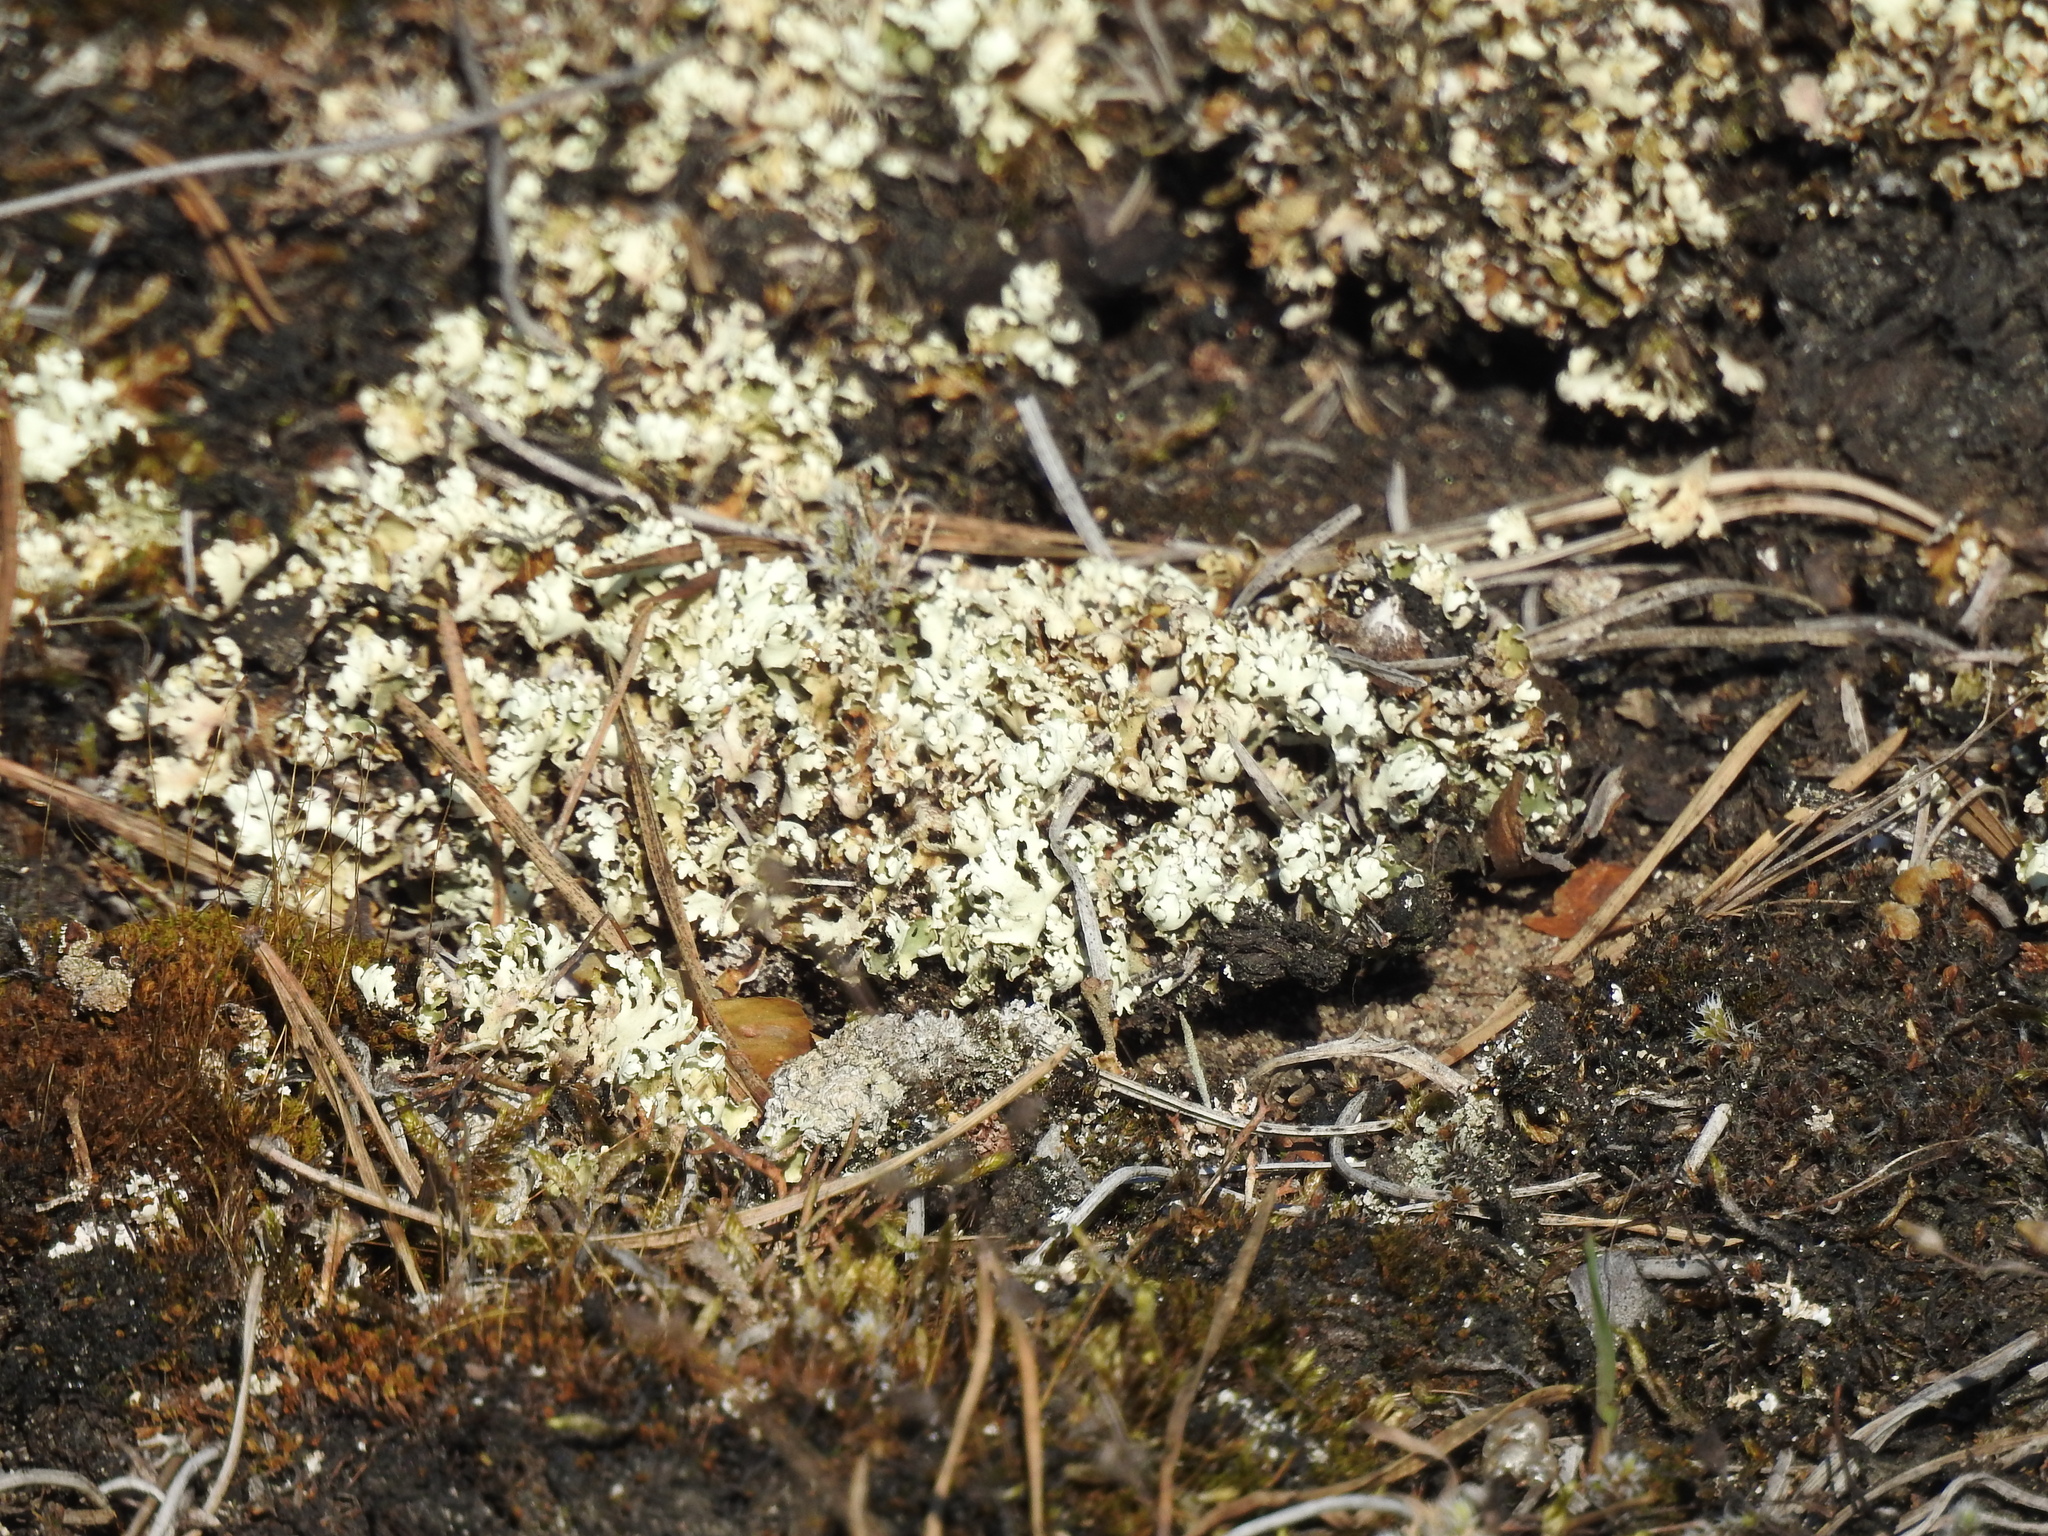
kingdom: Fungi
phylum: Ascomycota
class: Lecanoromycetes
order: Lecanorales
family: Cladoniaceae
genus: Cladonia
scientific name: Cladonia foliacea
